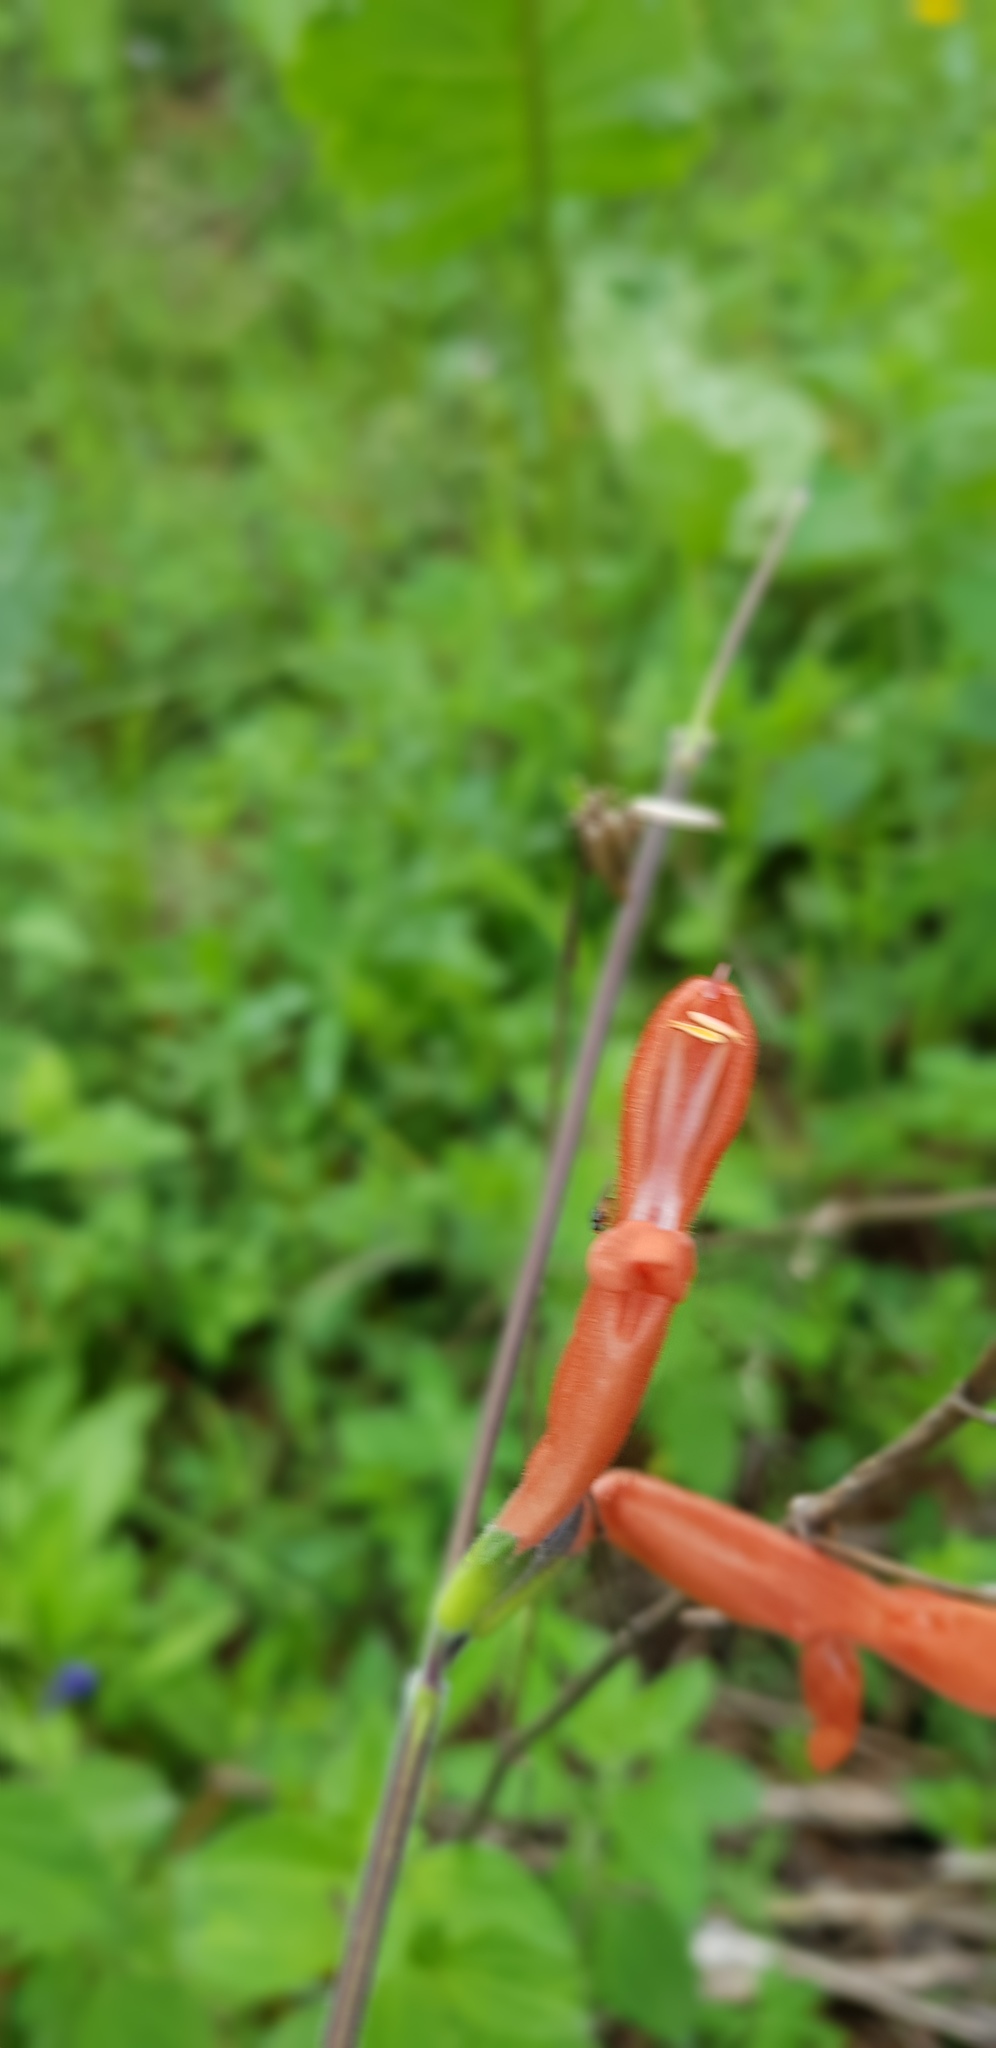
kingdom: Plantae
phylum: Tracheophyta
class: Magnoliopsida
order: Lamiales
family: Lamiaceae
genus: Salvia
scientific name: Salvia stolonifera
